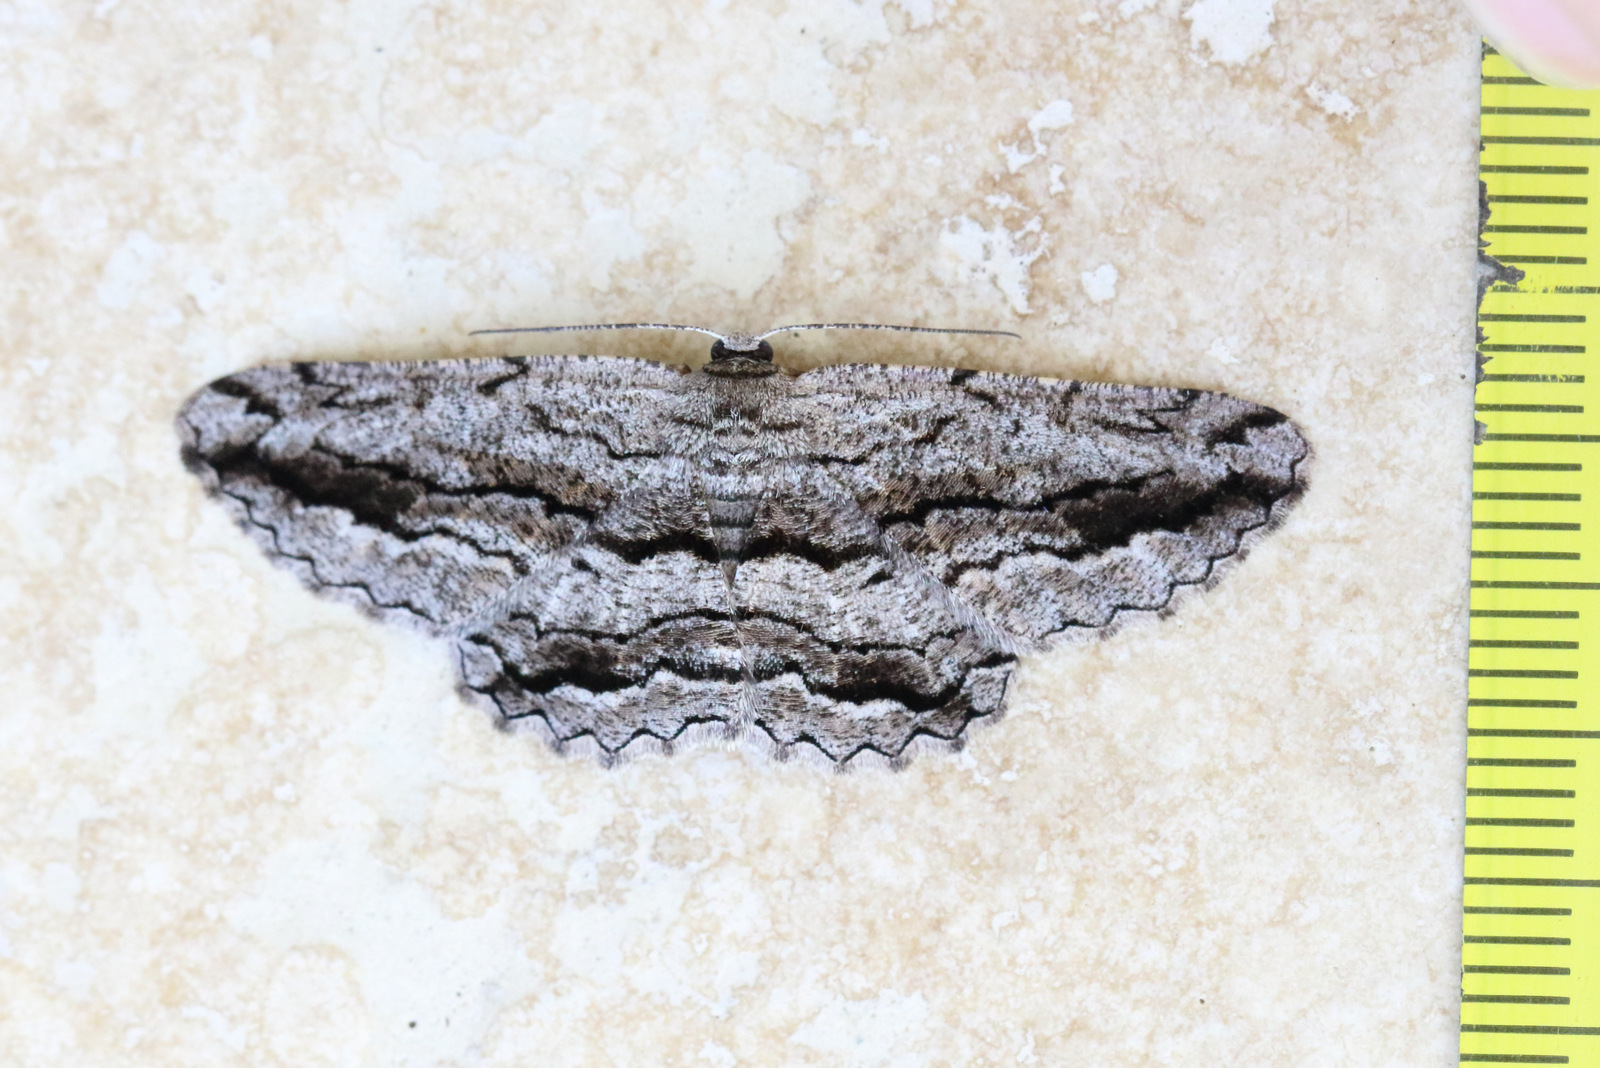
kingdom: Animalia
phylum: Arthropoda
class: Insecta
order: Lepidoptera
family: Geometridae
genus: Scioglyptis
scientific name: Scioglyptis canescaria
